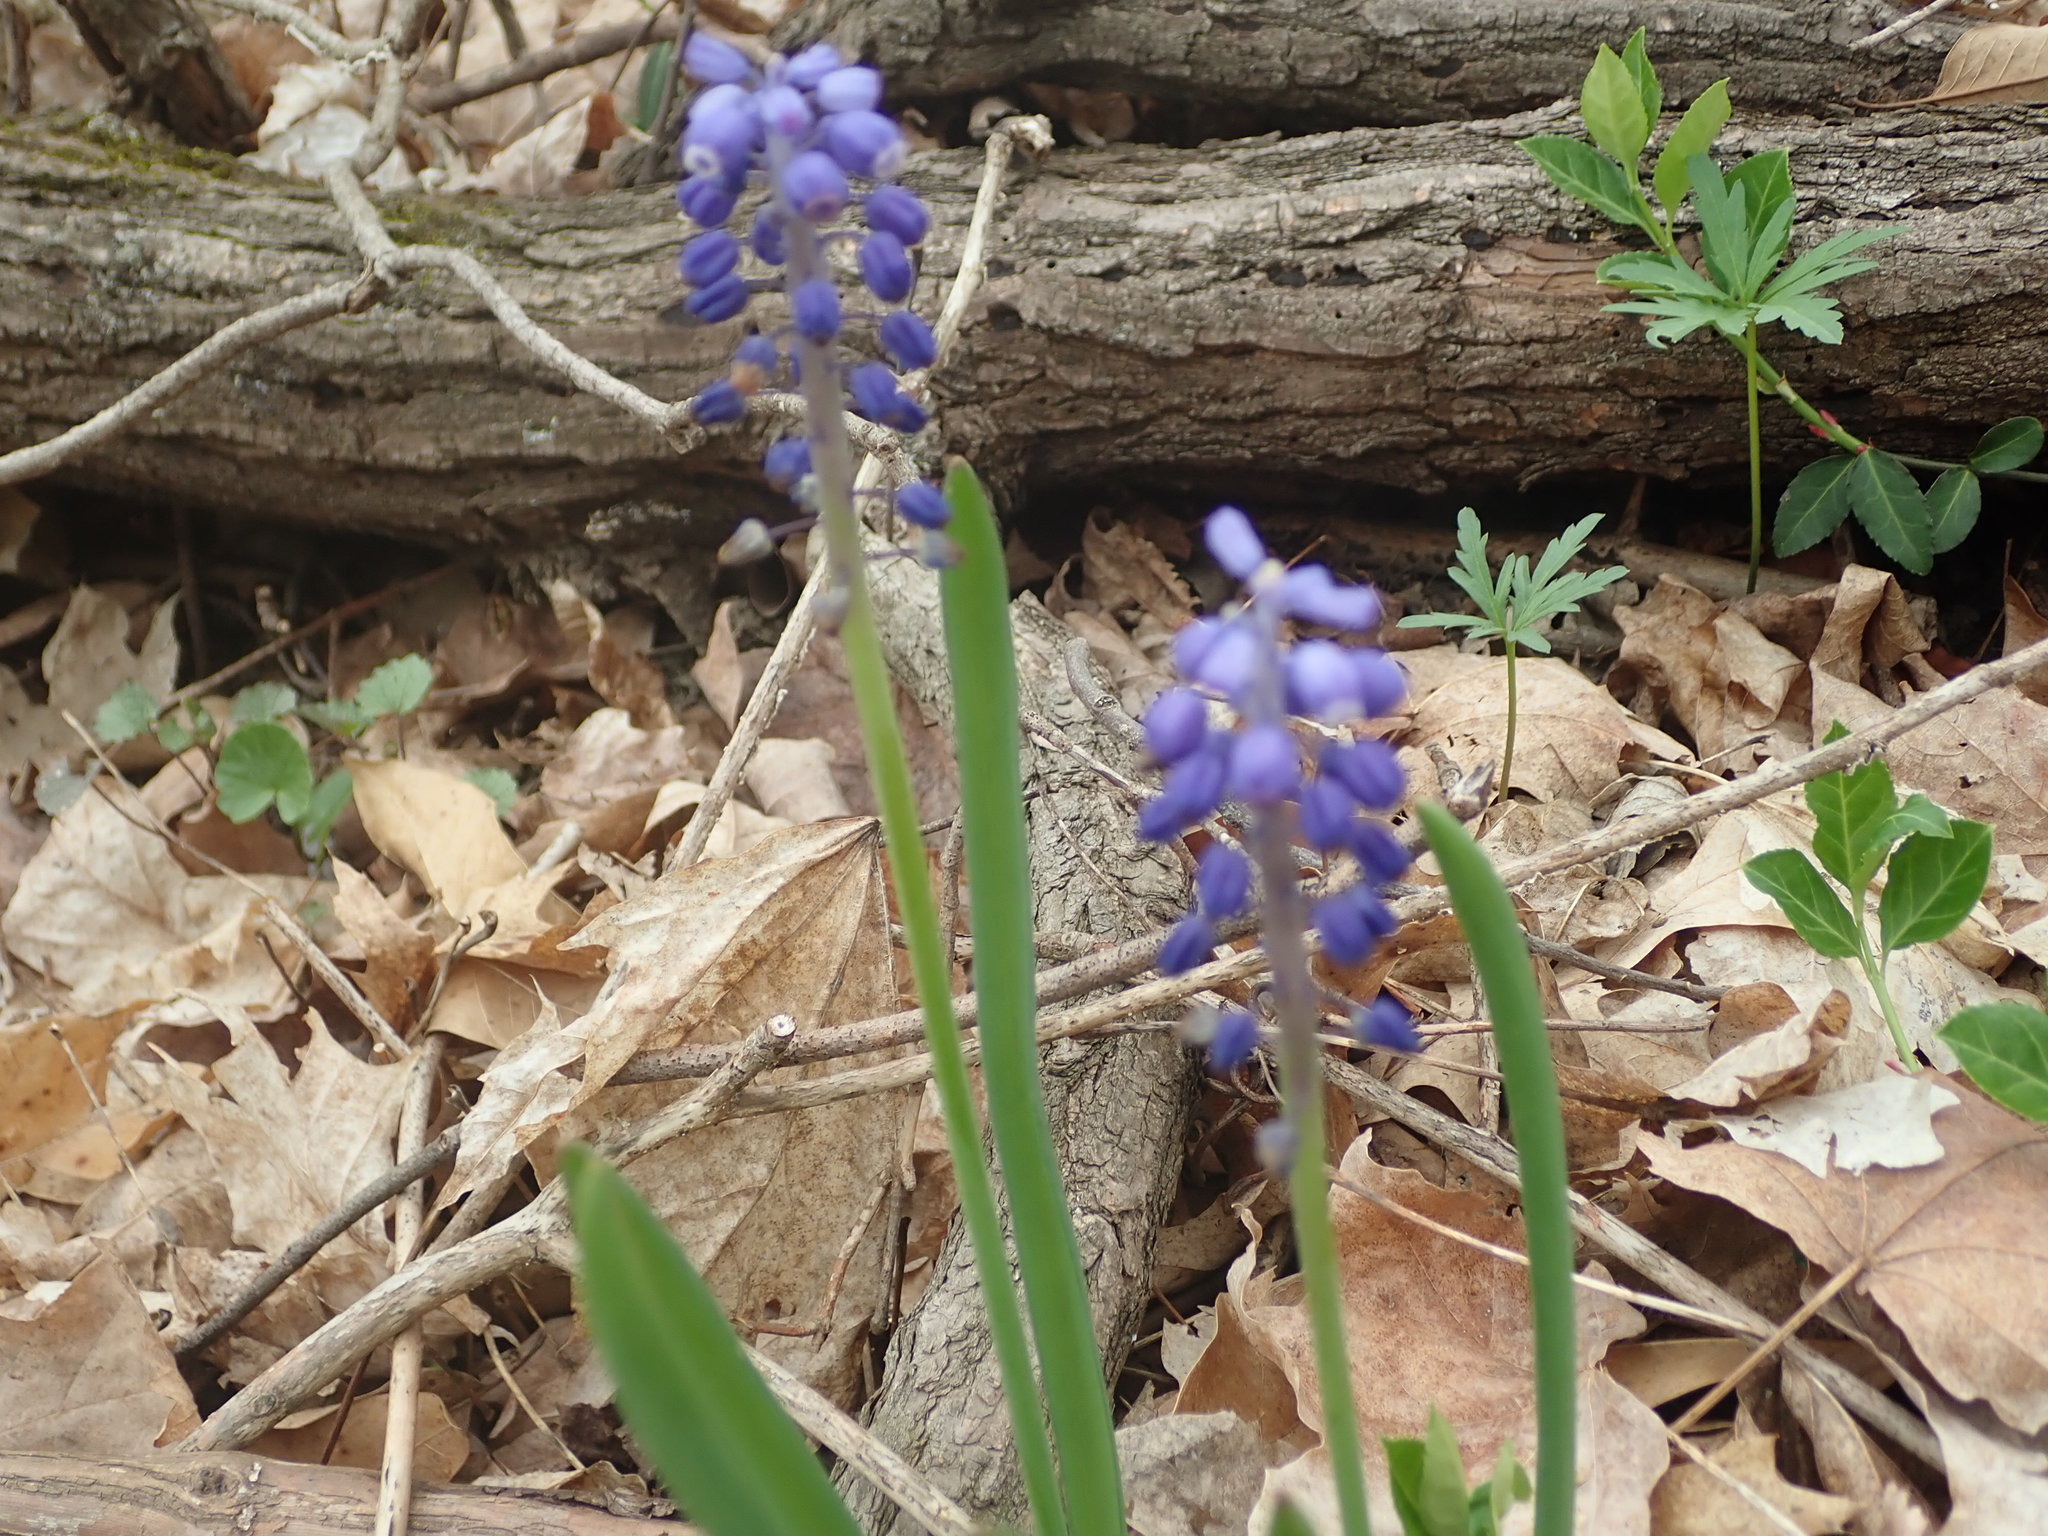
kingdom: Plantae
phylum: Tracheophyta
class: Liliopsida
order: Asparagales
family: Asparagaceae
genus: Muscari
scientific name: Muscari neglectum
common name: Grape-hyacinth
